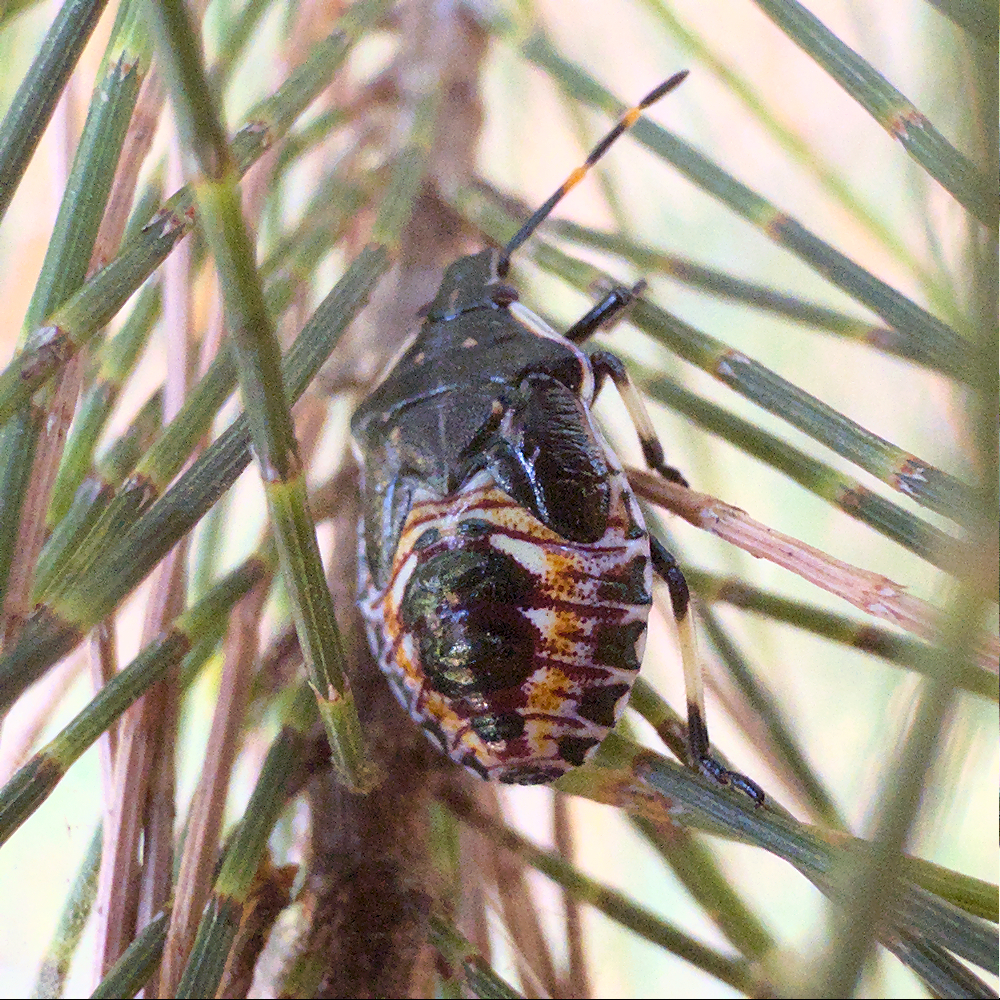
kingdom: Animalia
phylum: Arthropoda
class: Insecta
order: Hemiptera
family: Pentatomidae
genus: Oechalia
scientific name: Oechalia schellenbergii
